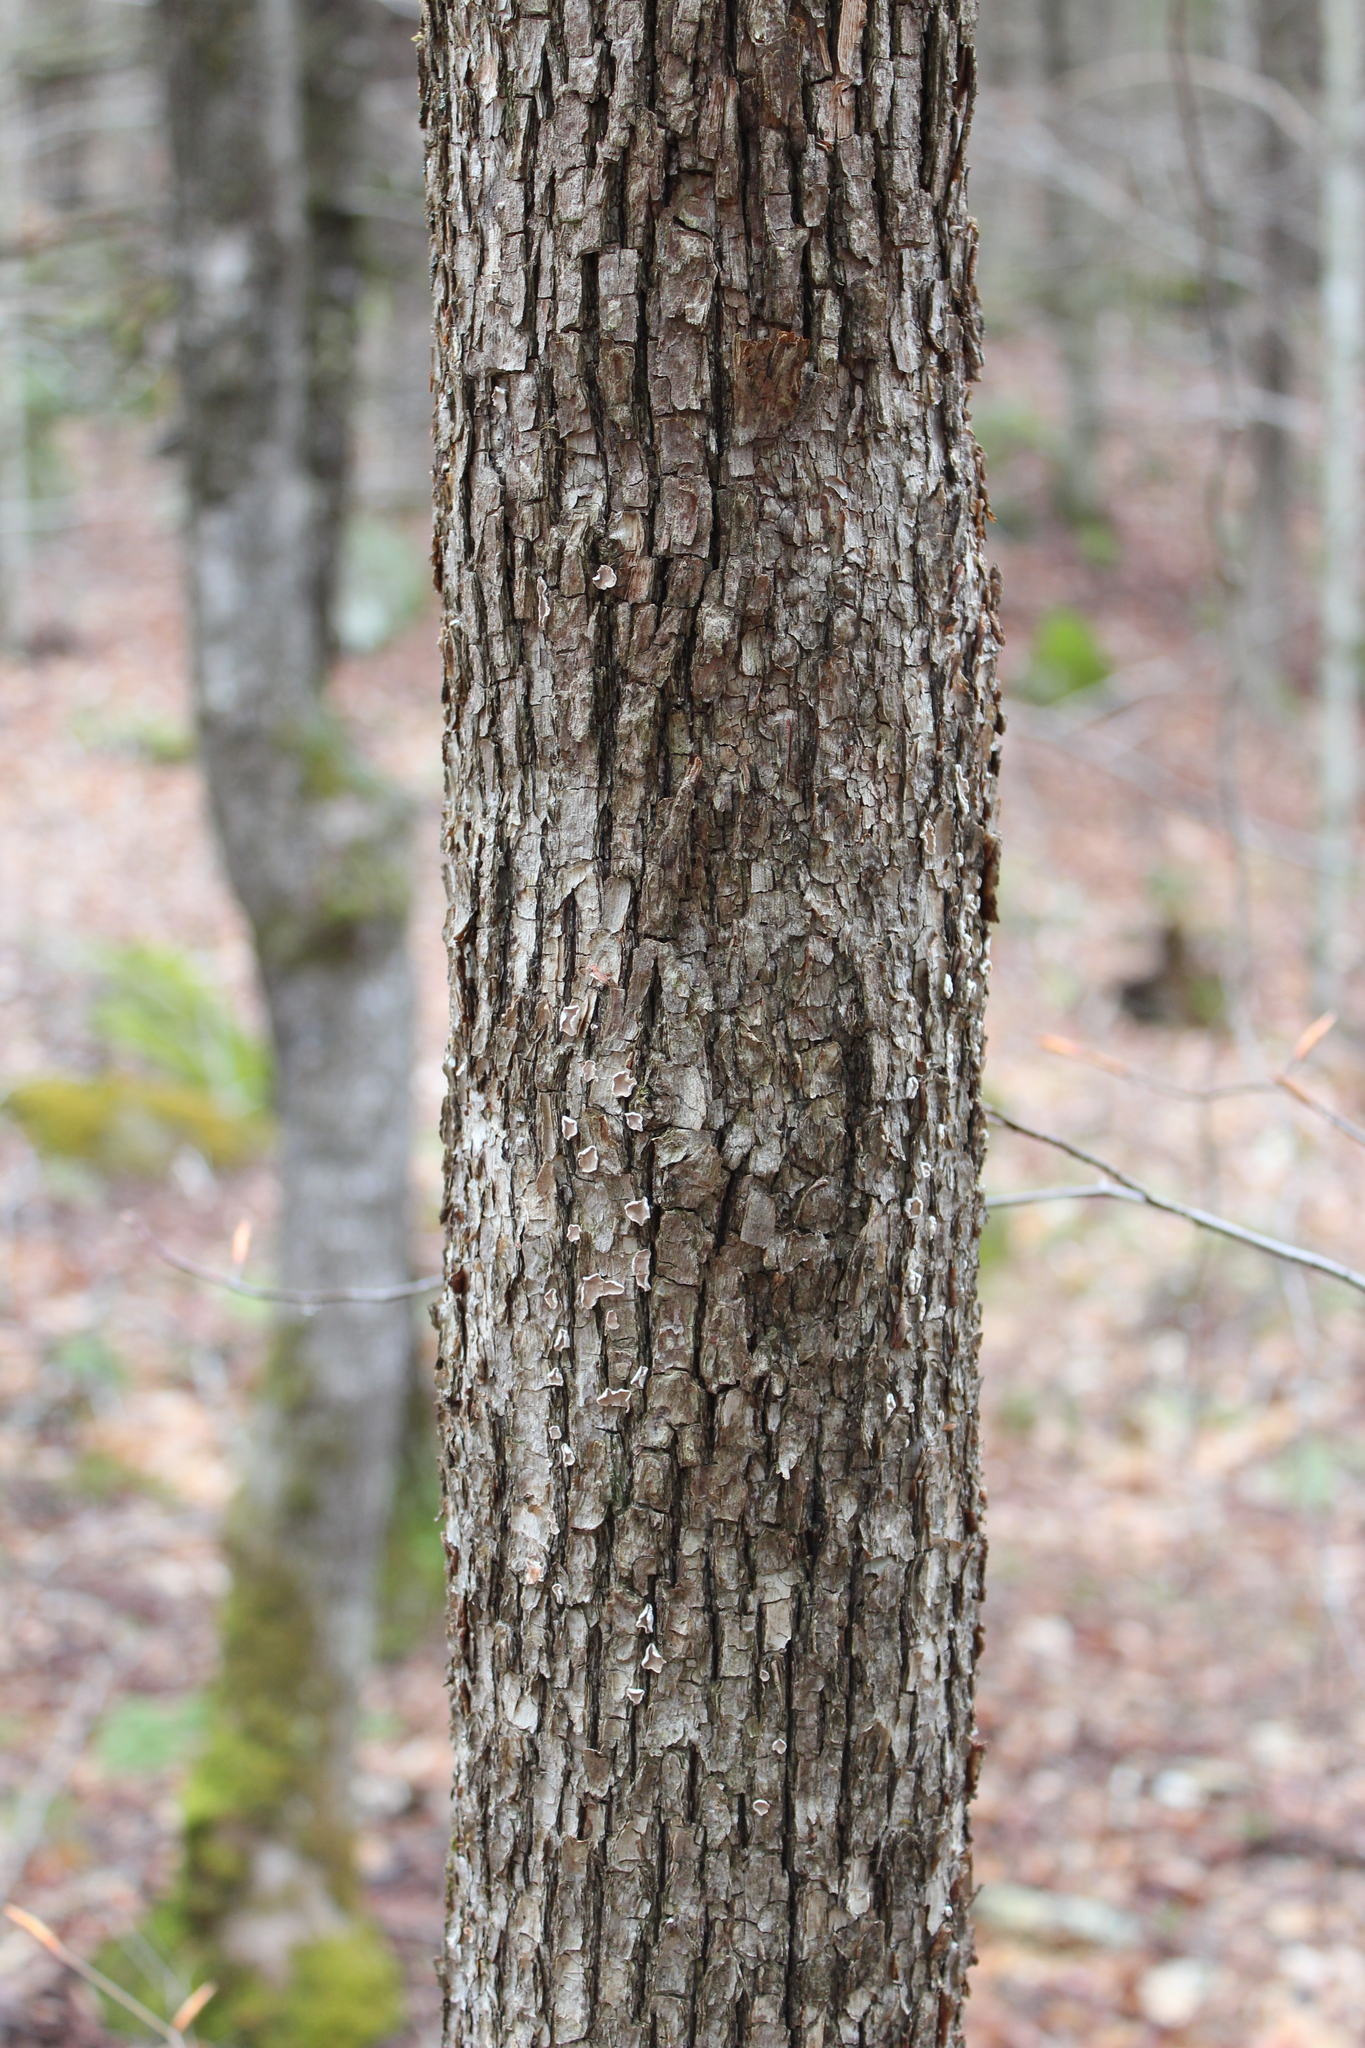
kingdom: Plantae
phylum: Tracheophyta
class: Magnoliopsida
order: Fagales
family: Betulaceae
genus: Ostrya
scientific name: Ostrya virginiana
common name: Ironwood
